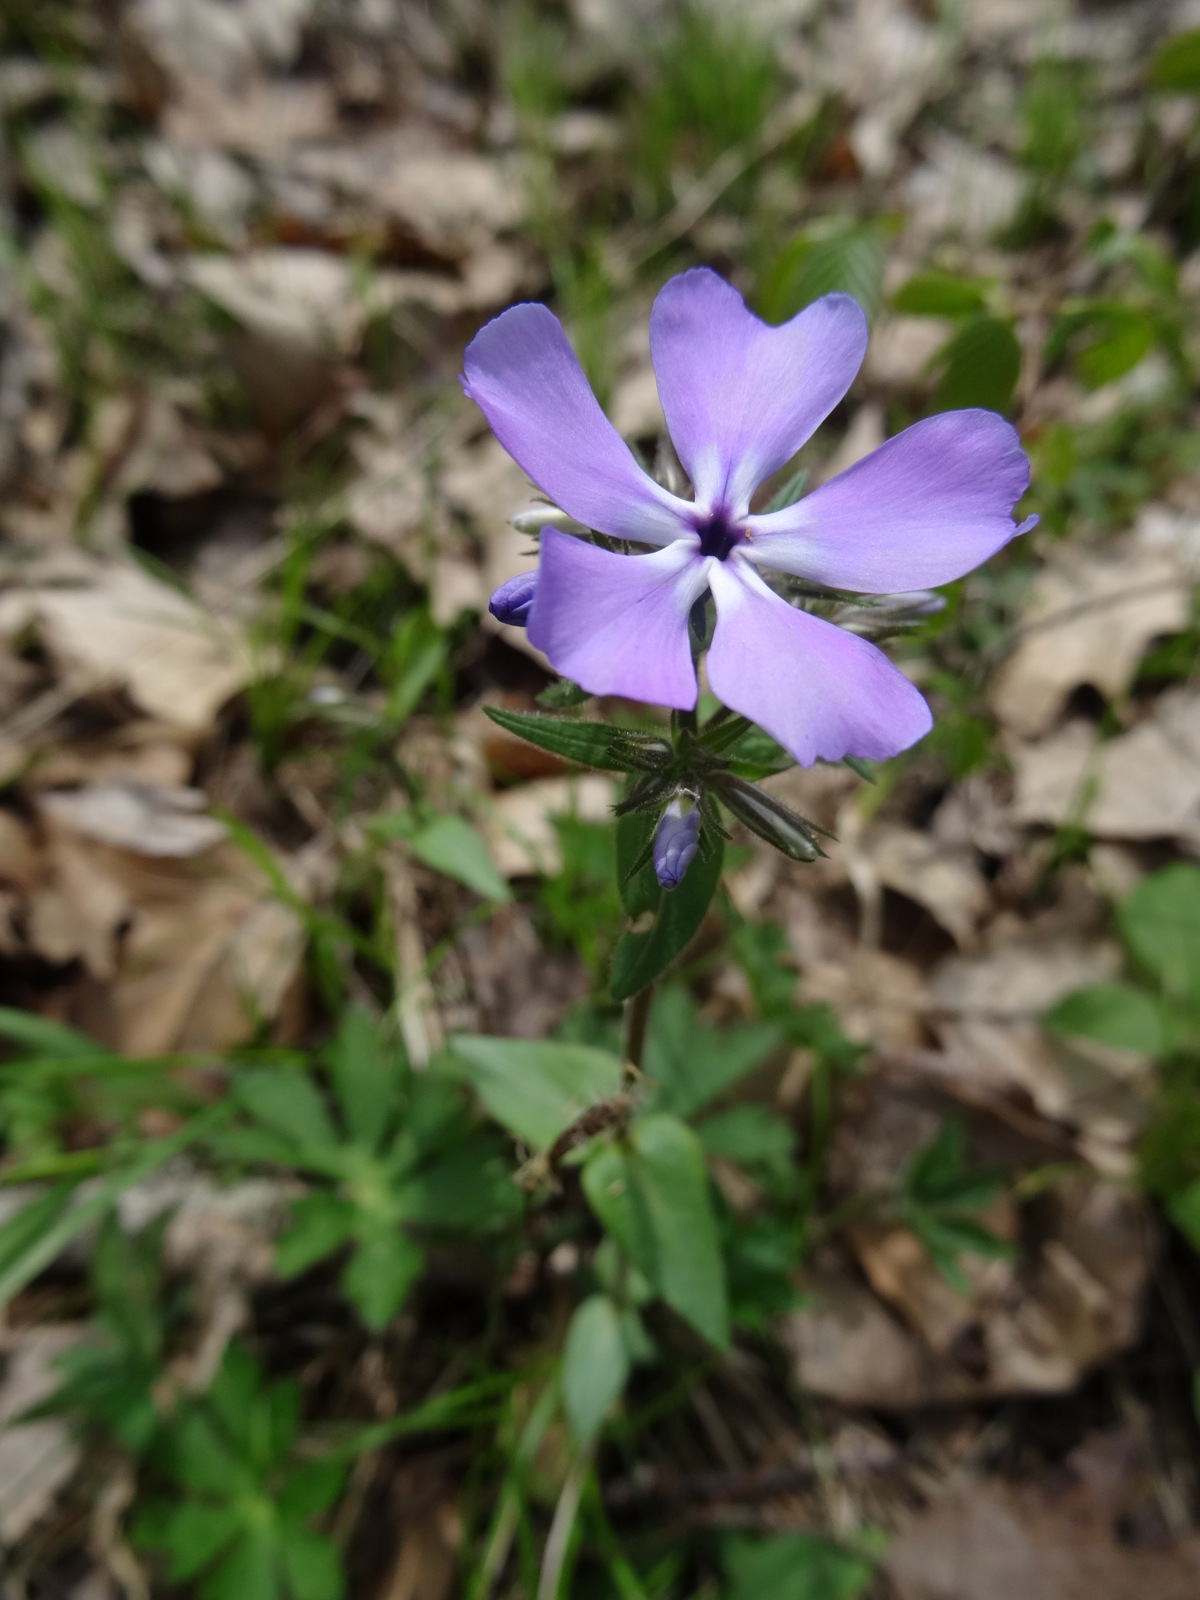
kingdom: Plantae
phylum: Tracheophyta
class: Magnoliopsida
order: Ericales
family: Polemoniaceae
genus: Phlox
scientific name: Phlox divaricata
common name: Blue phlox
